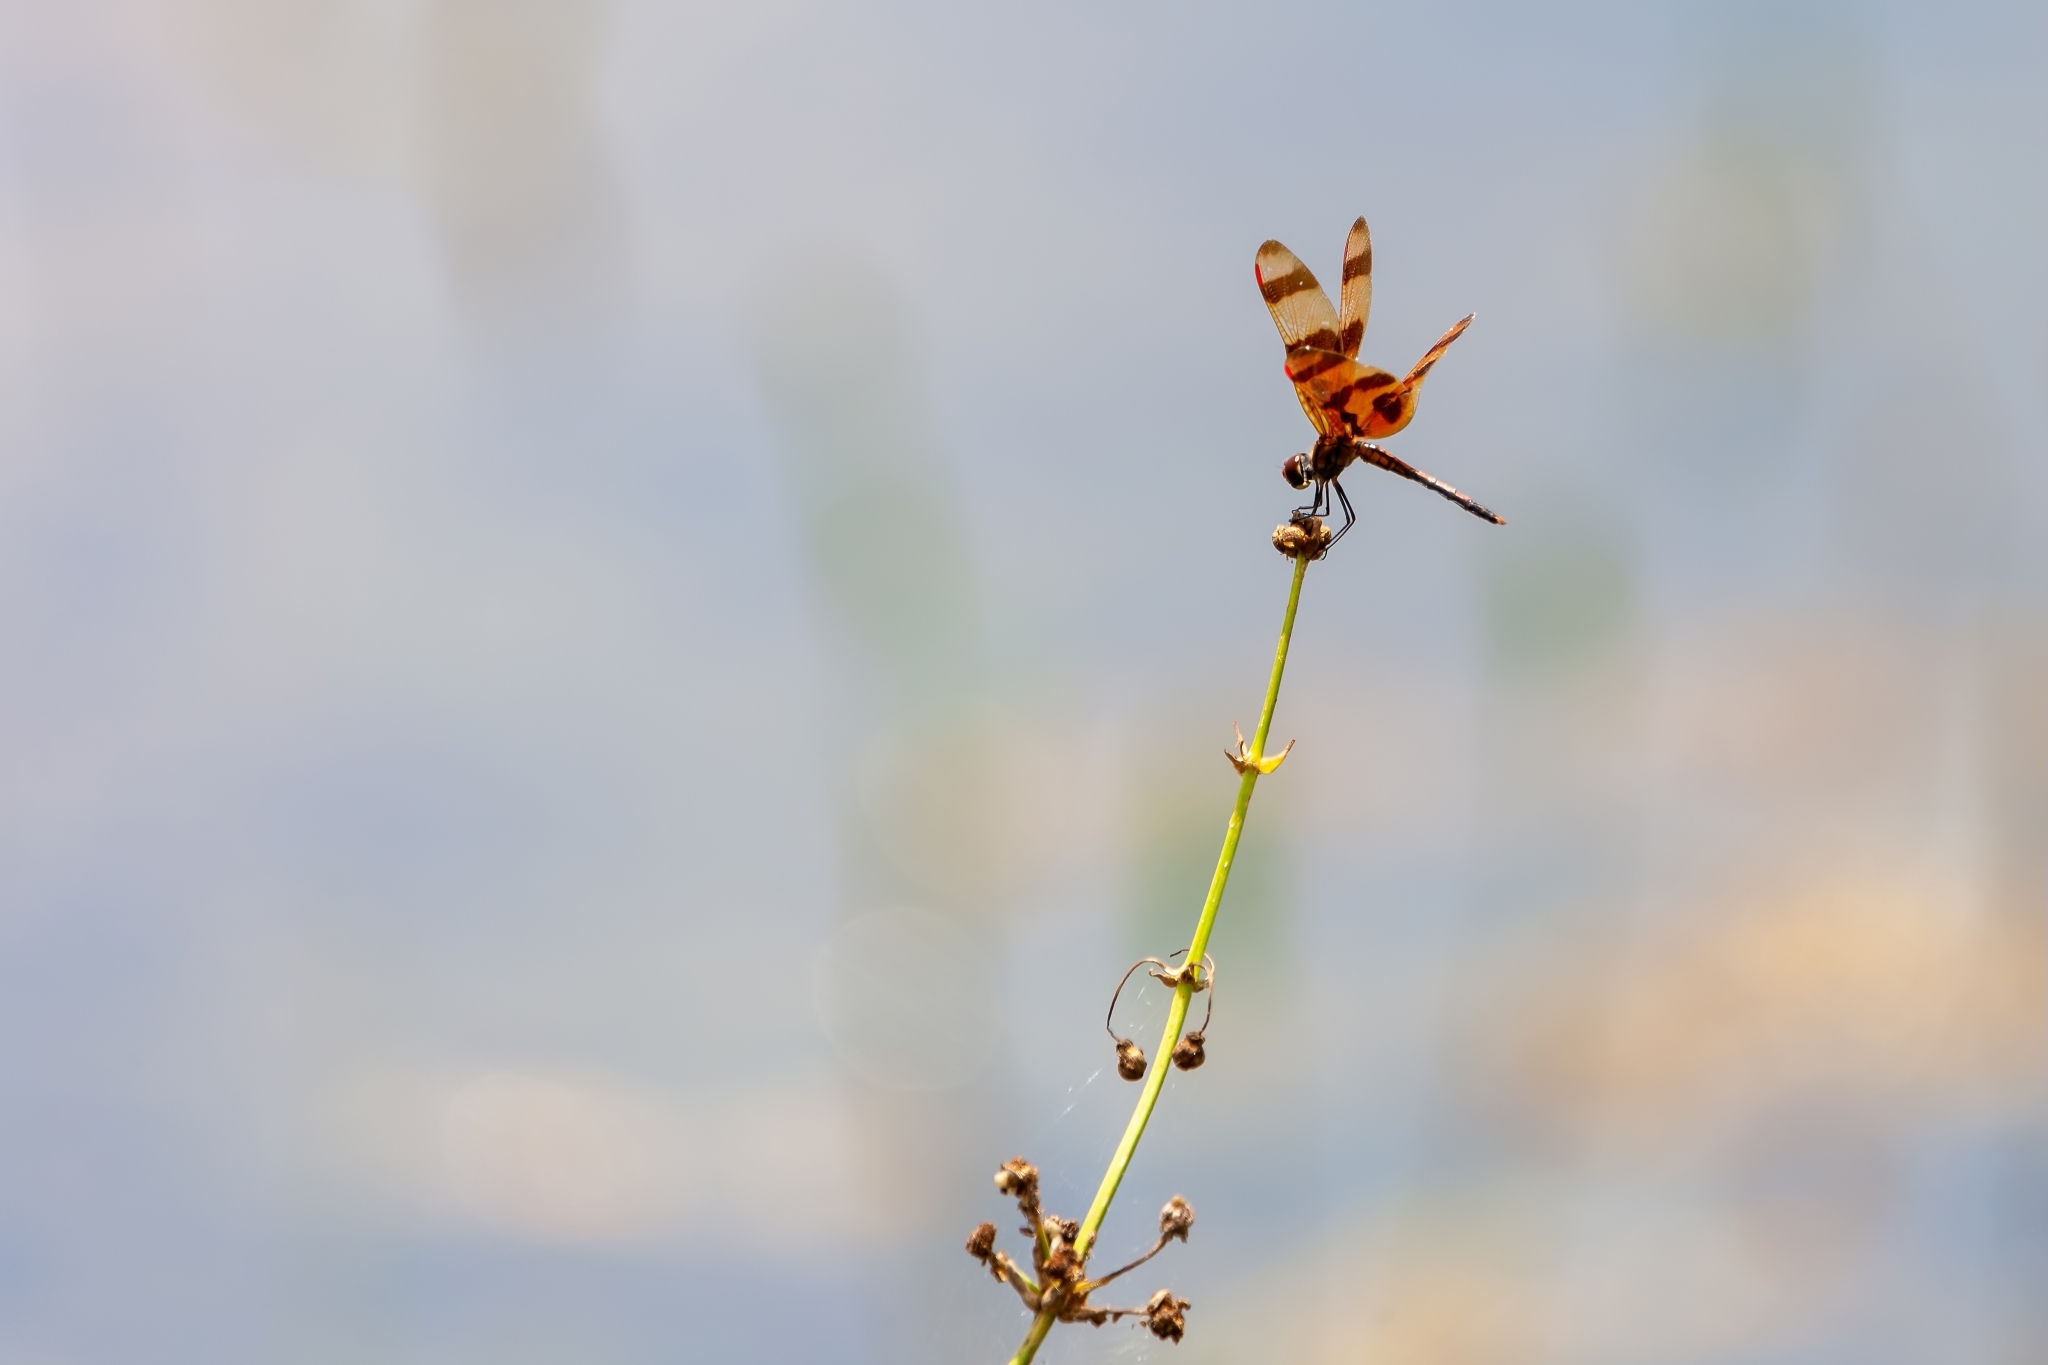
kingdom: Animalia
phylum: Arthropoda
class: Insecta
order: Odonata
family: Libellulidae
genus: Celithemis
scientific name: Celithemis eponina
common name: Halloween pennant
